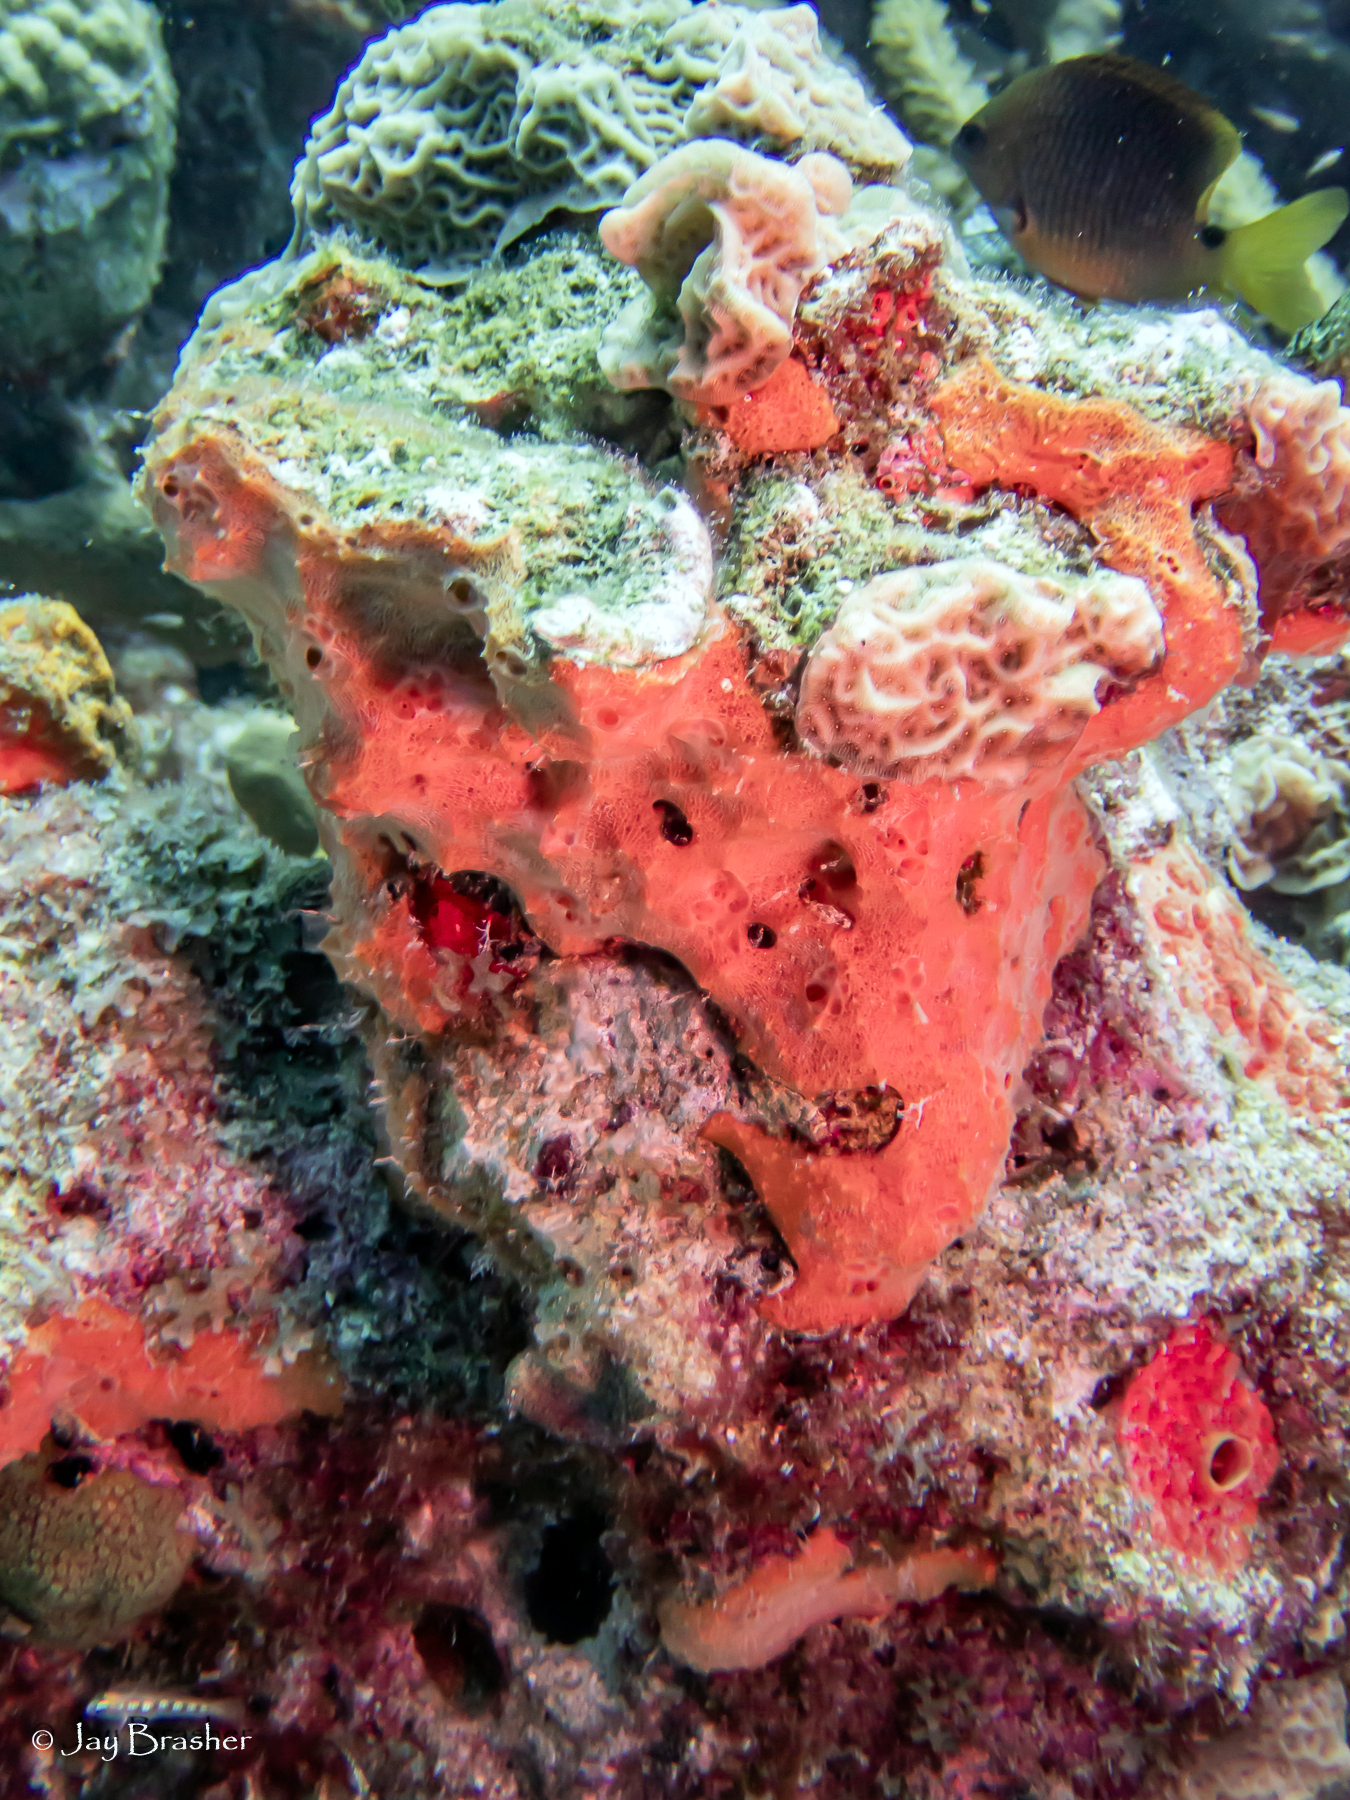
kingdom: Animalia
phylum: Chordata
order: Perciformes
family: Pomacentridae
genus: Stegastes
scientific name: Stegastes planifrons
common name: Threespot damselfish
